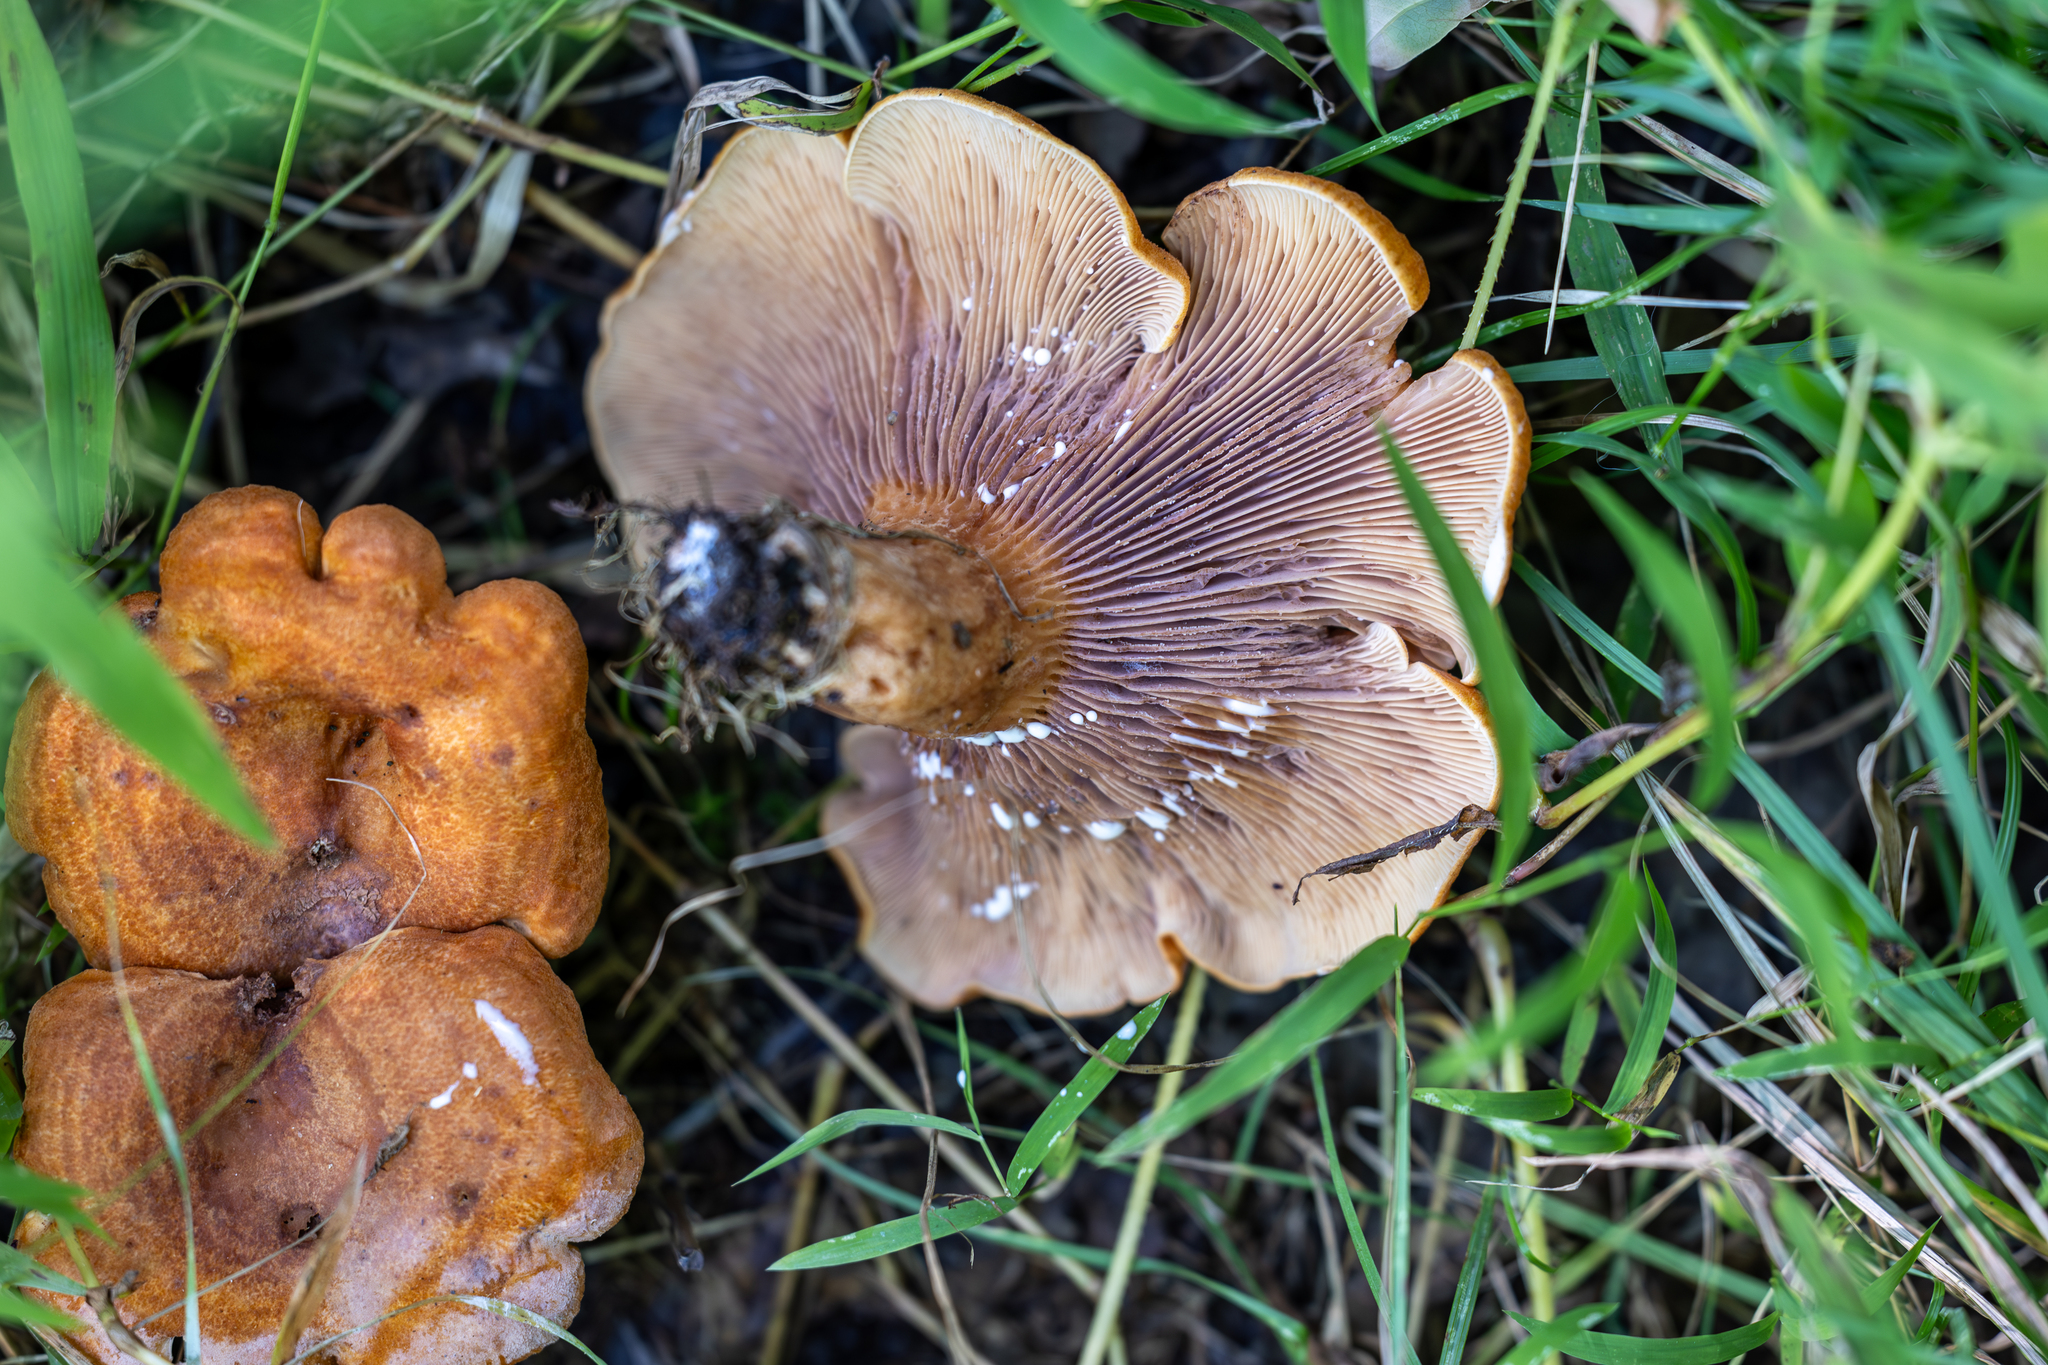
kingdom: Fungi
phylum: Basidiomycota
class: Agaricomycetes
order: Russulales
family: Russulaceae
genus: Lactarius
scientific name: Lactarius peckii
